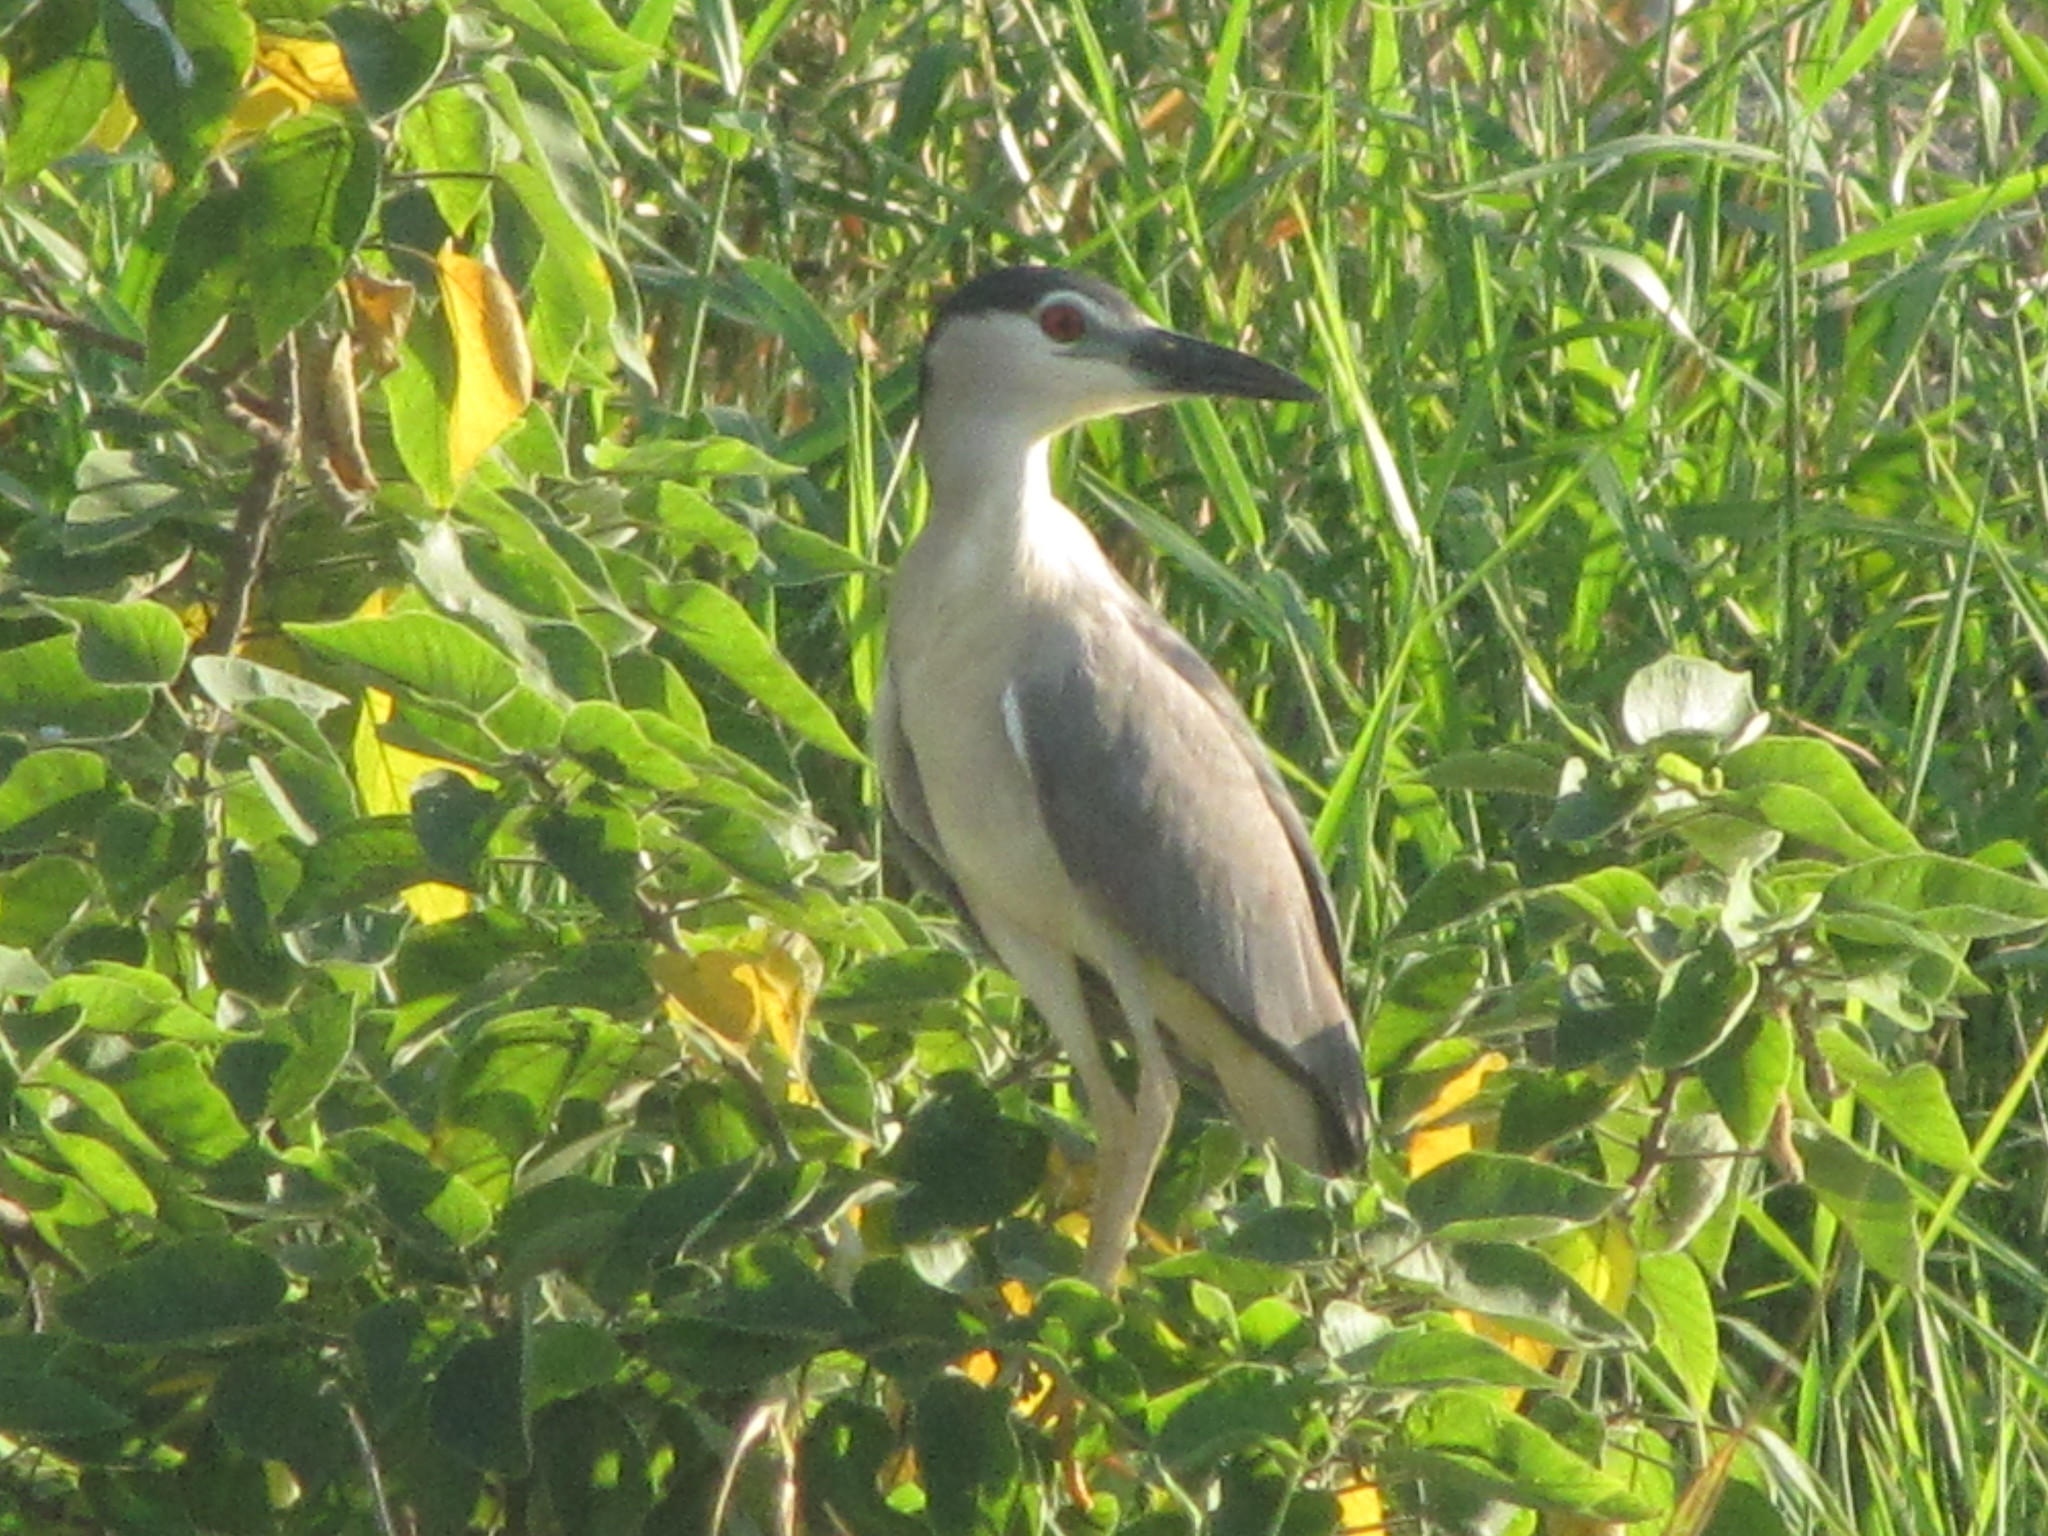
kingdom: Animalia
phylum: Chordata
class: Aves
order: Pelecaniformes
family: Ardeidae
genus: Nycticorax
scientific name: Nycticorax nycticorax
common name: Black-crowned night heron
